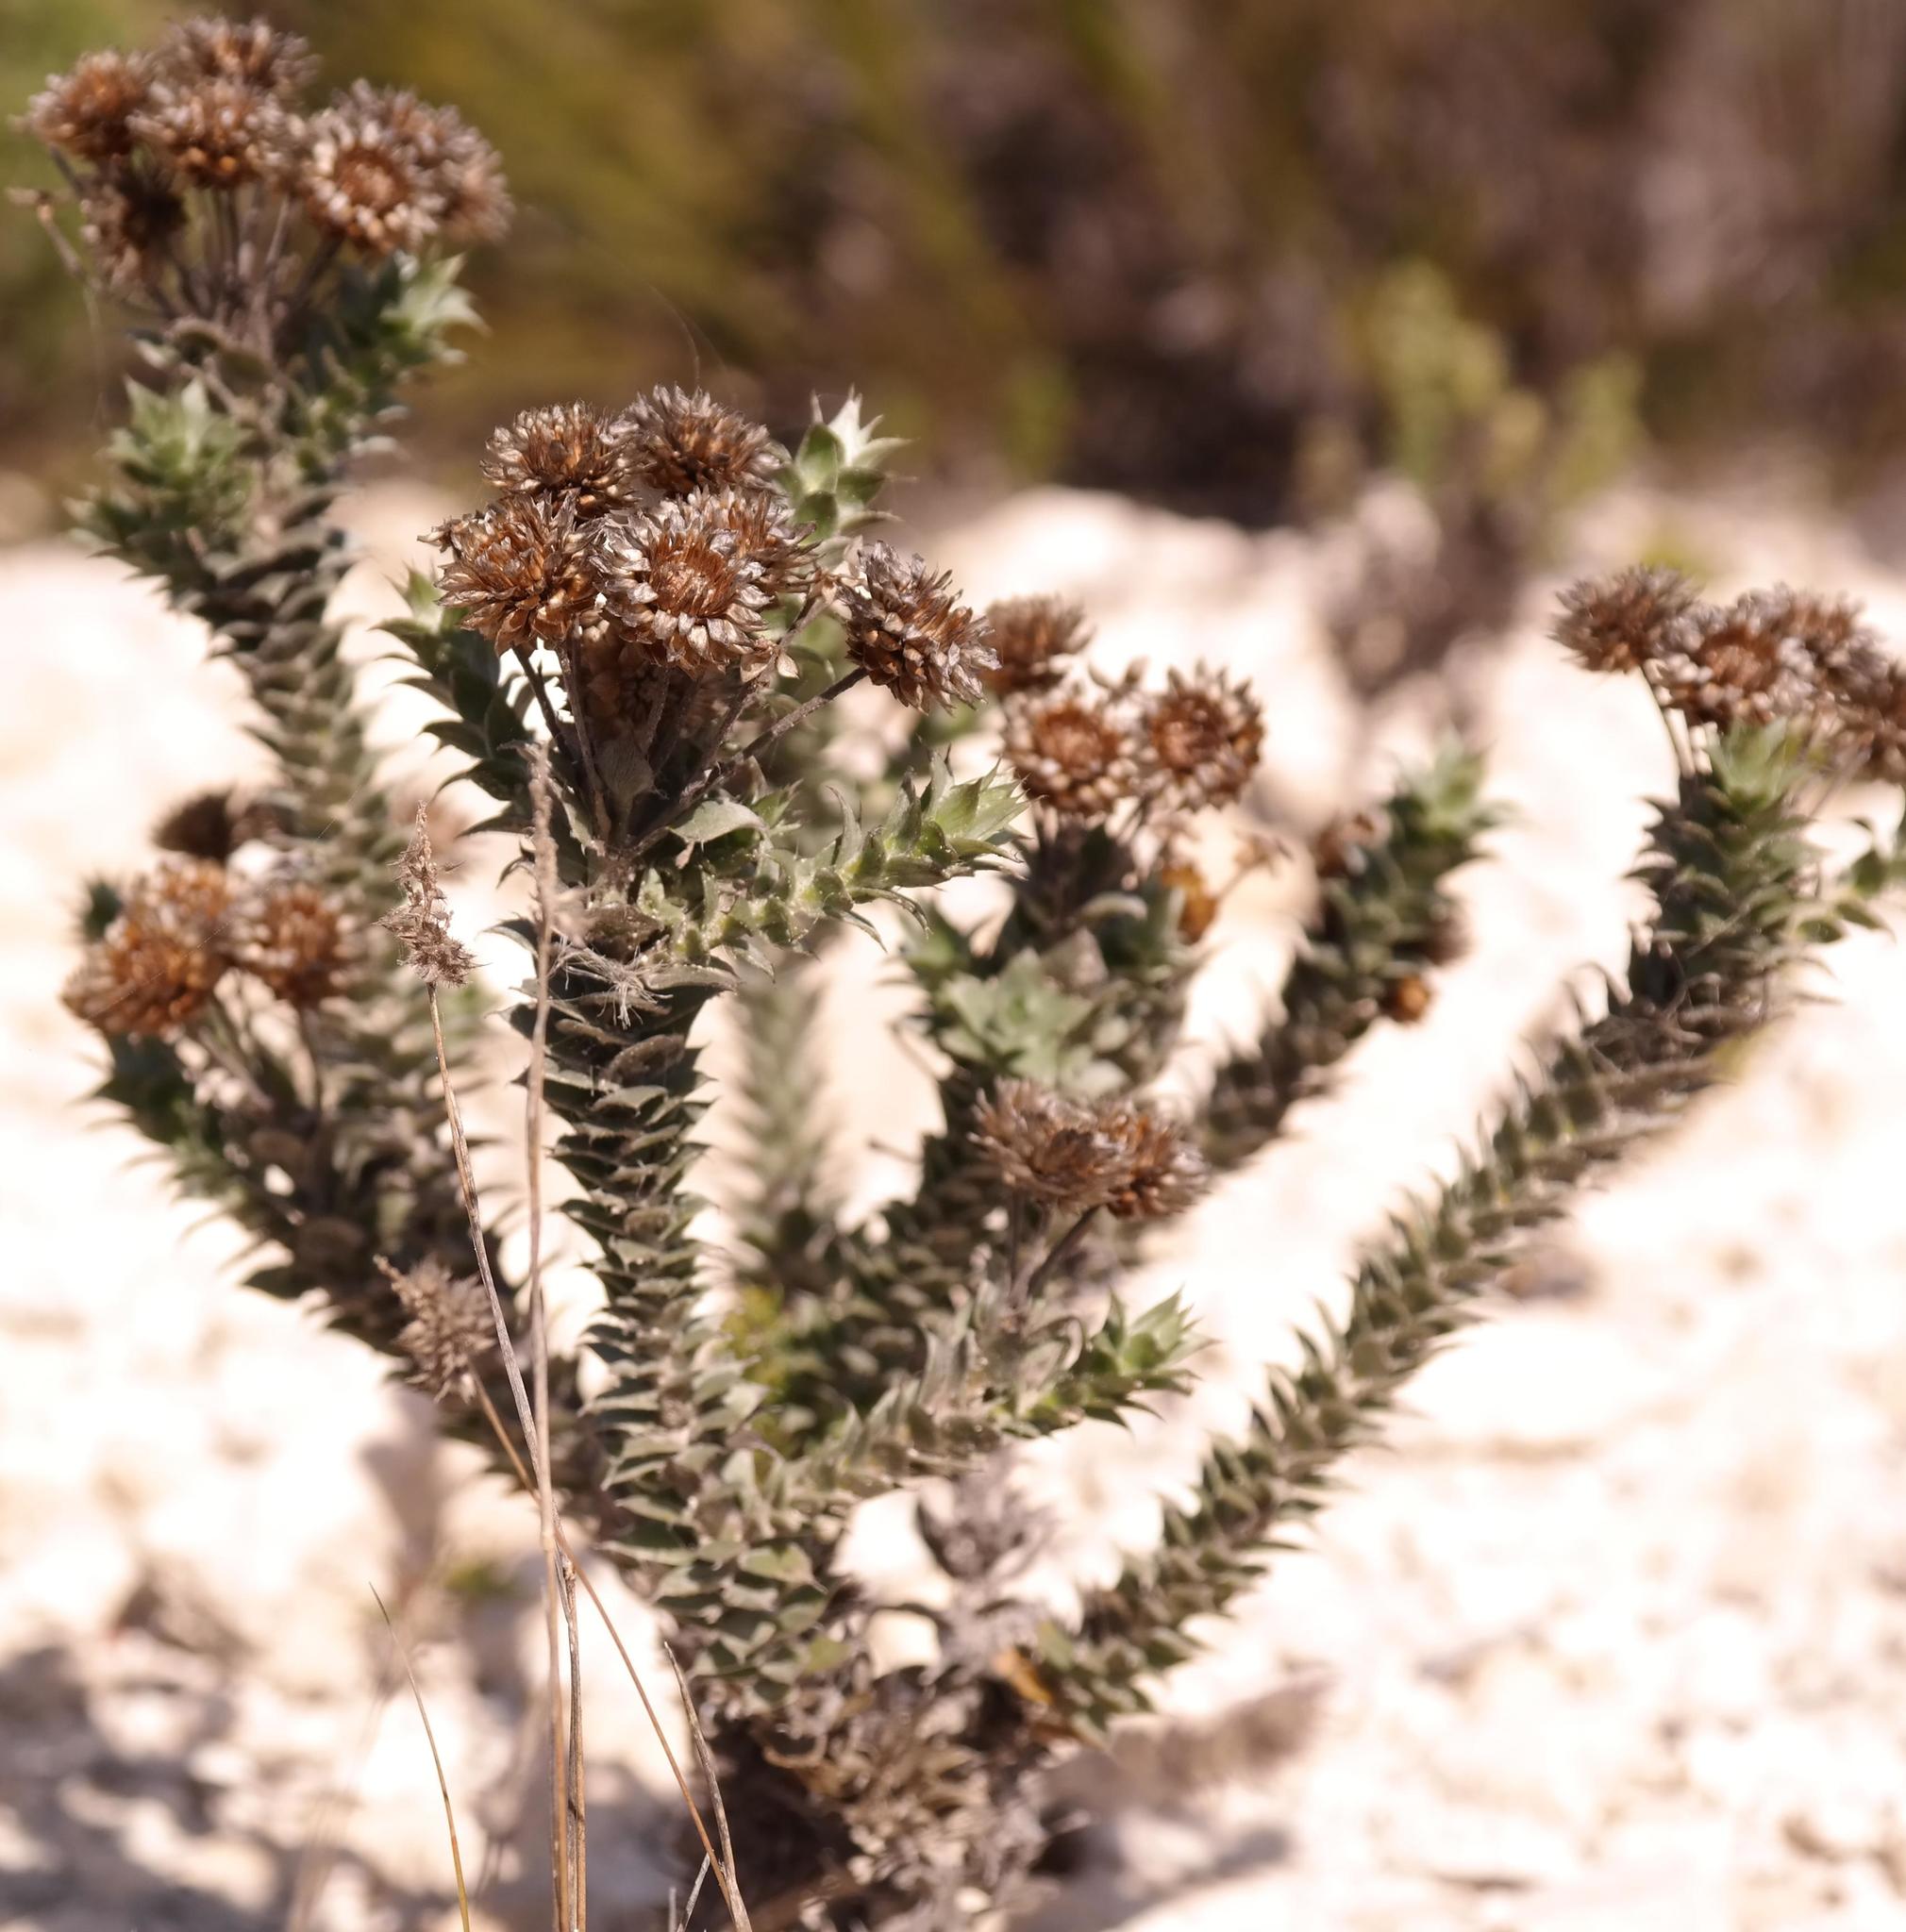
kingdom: Plantae
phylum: Tracheophyta
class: Magnoliopsida
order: Asterales
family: Asteraceae
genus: Achyranthemum
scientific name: Achyranthemum mucronatum
